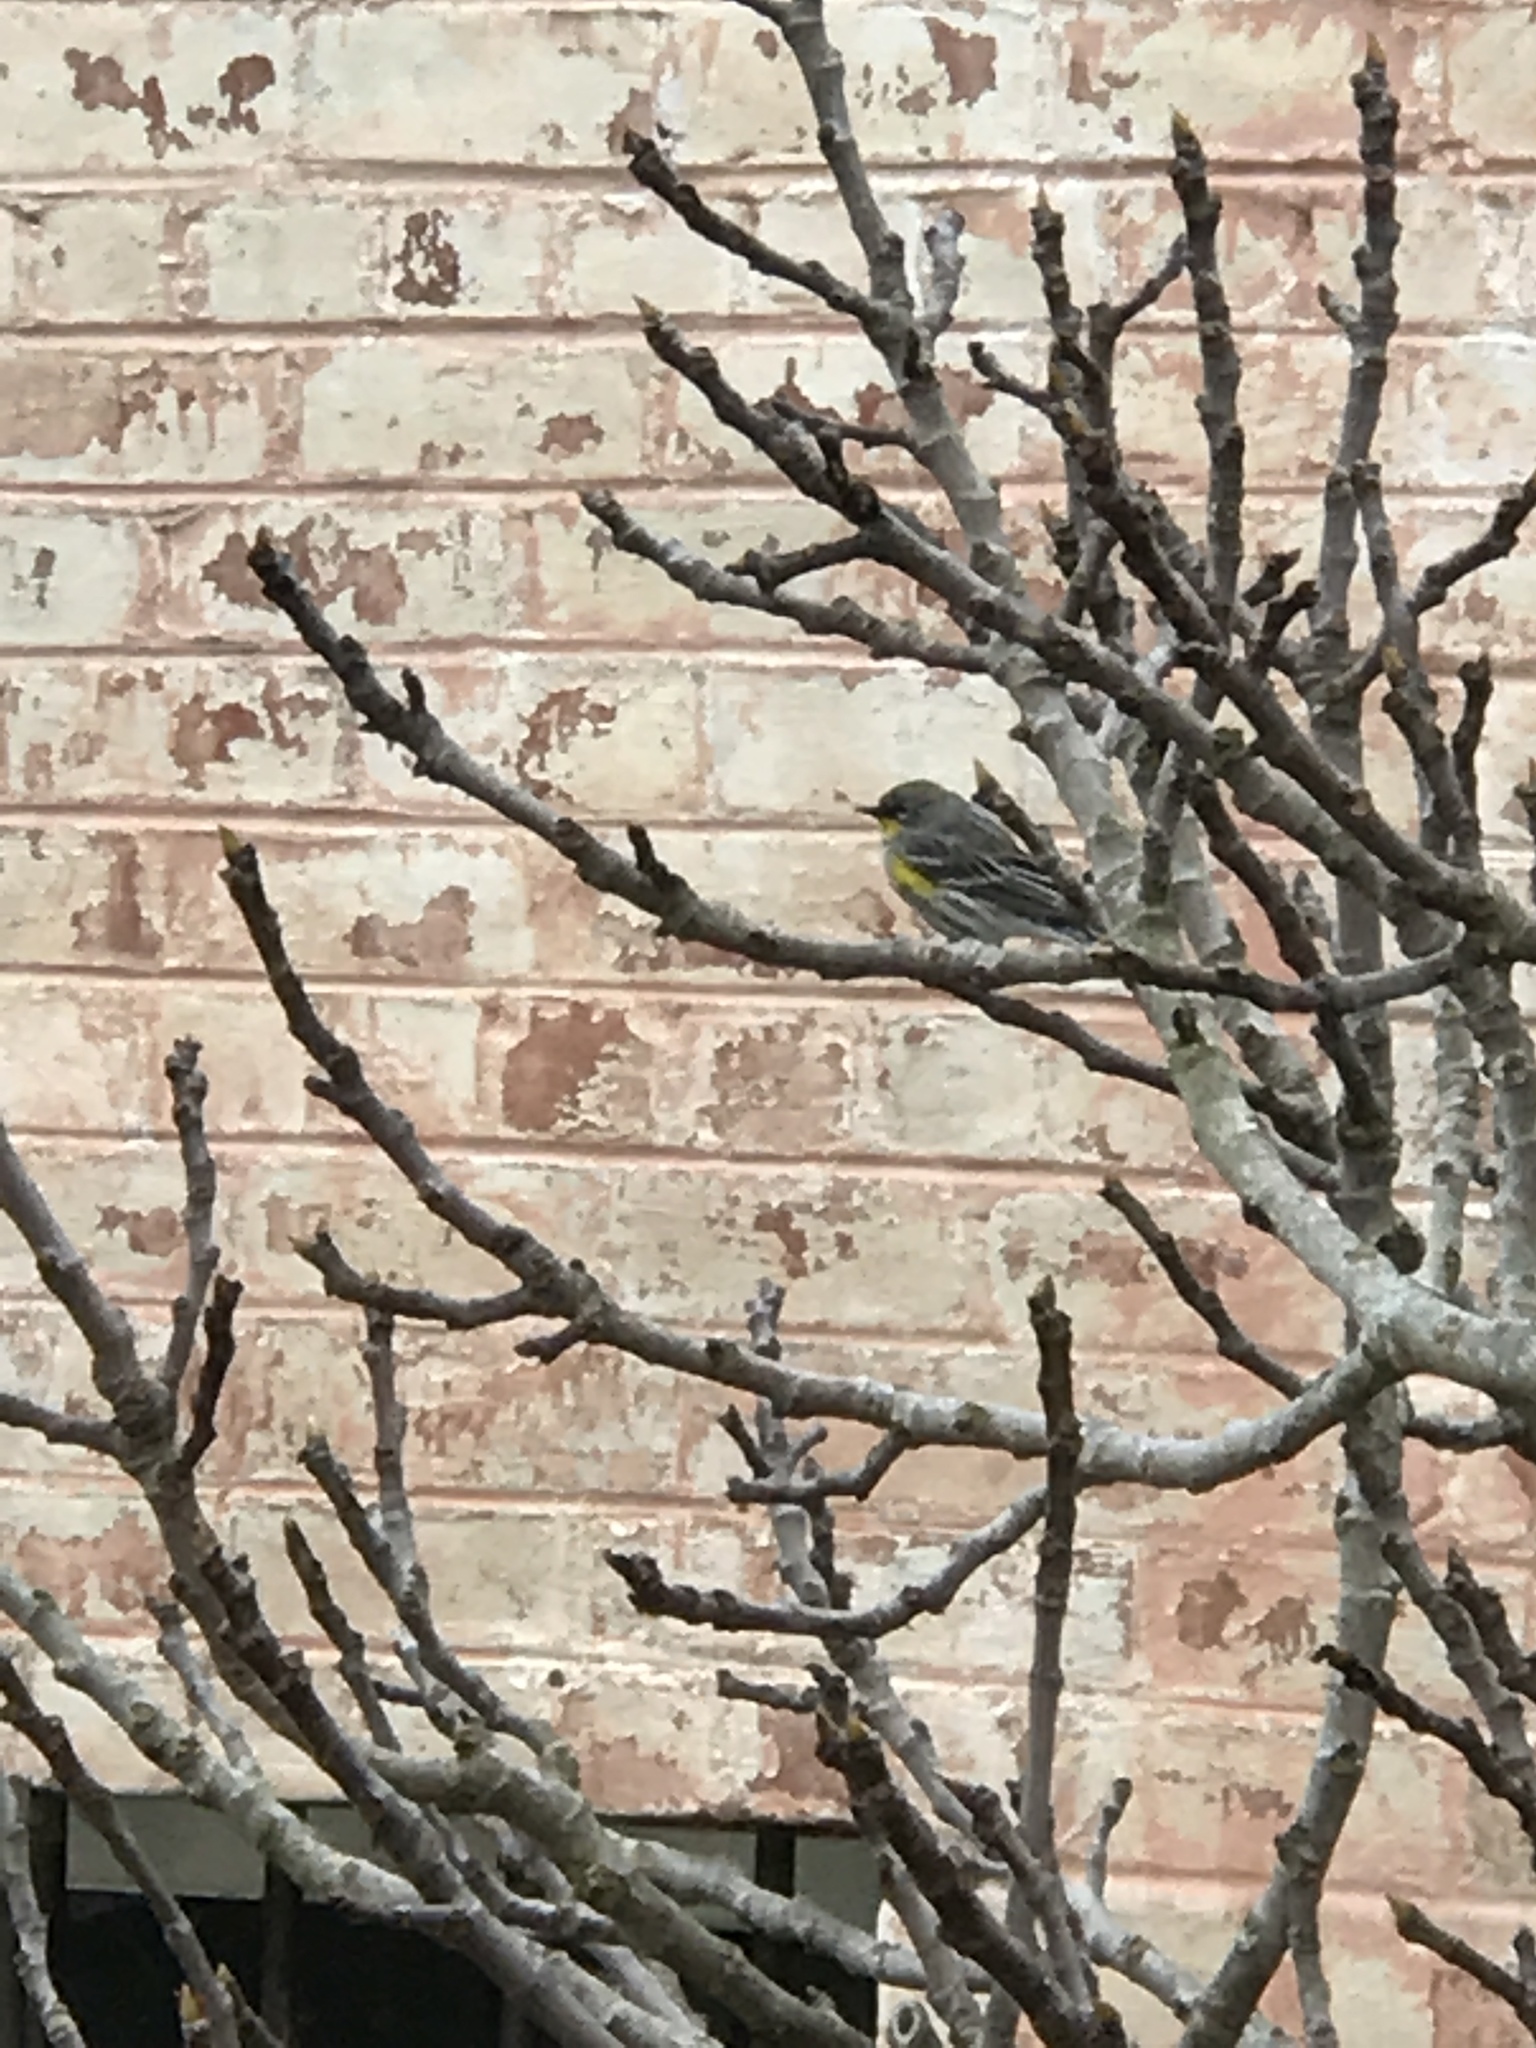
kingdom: Animalia
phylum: Chordata
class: Aves
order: Passeriformes
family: Parulidae
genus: Setophaga
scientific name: Setophaga coronata
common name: Myrtle warbler
